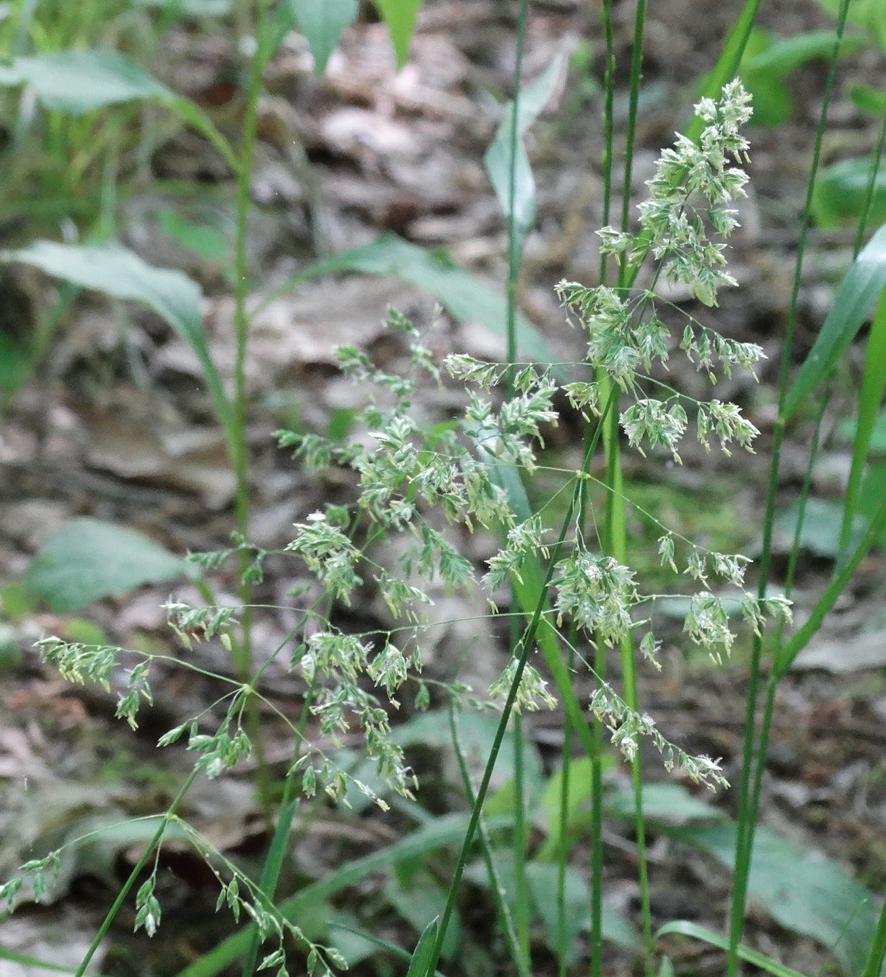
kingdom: Plantae
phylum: Tracheophyta
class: Liliopsida
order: Poales
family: Poaceae
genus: Dactylis
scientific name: Dactylis glomerata
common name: Orchardgrass
